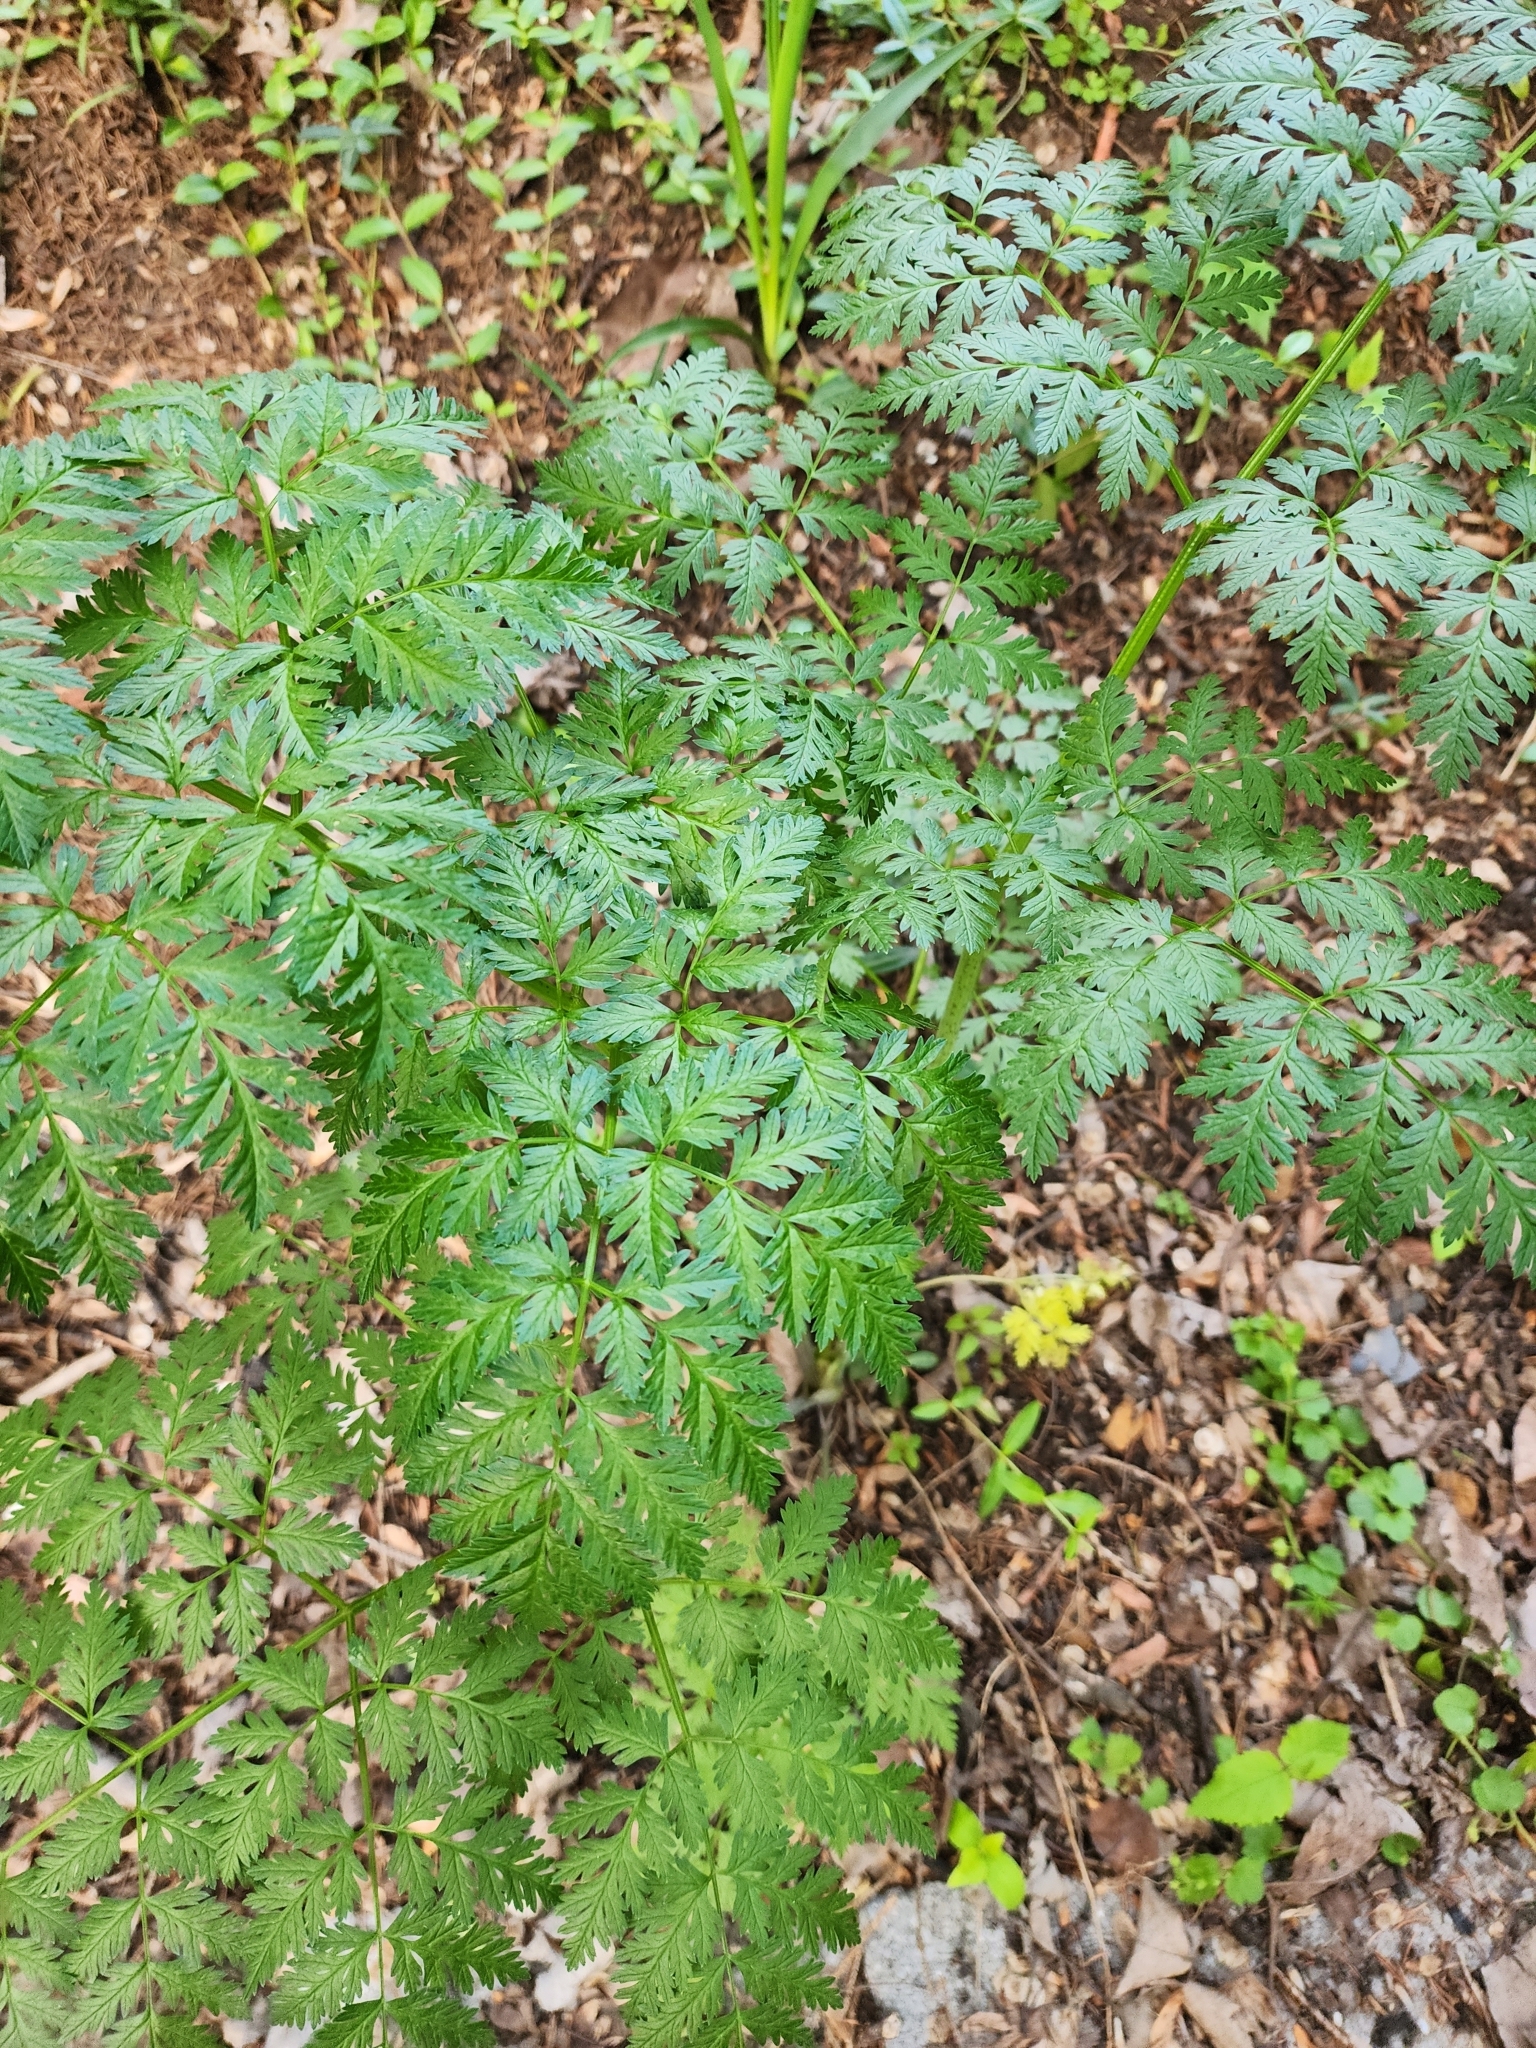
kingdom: Plantae
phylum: Tracheophyta
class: Magnoliopsida
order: Apiales
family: Apiaceae
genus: Conium
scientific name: Conium maculatum
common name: Hemlock
